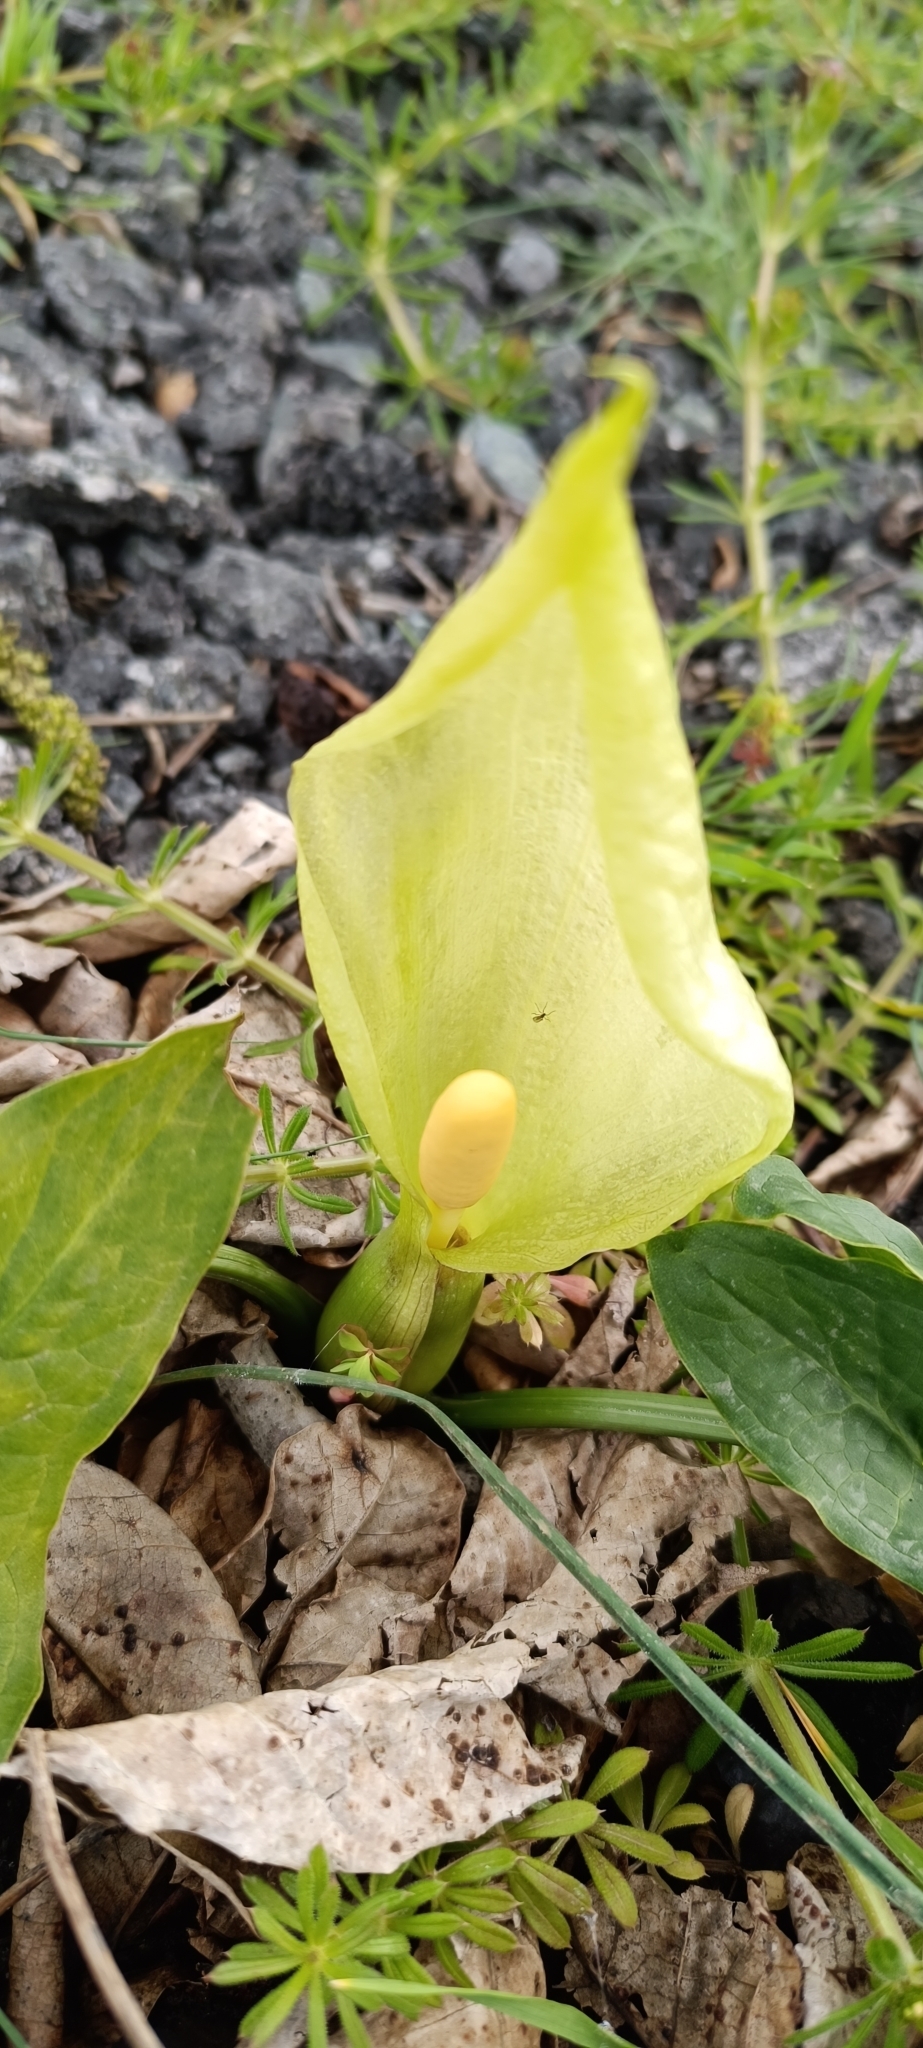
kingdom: Plantae
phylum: Tracheophyta
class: Liliopsida
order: Alismatales
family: Araceae
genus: Arum
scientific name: Arum italicum
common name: Italian lords-and-ladies
